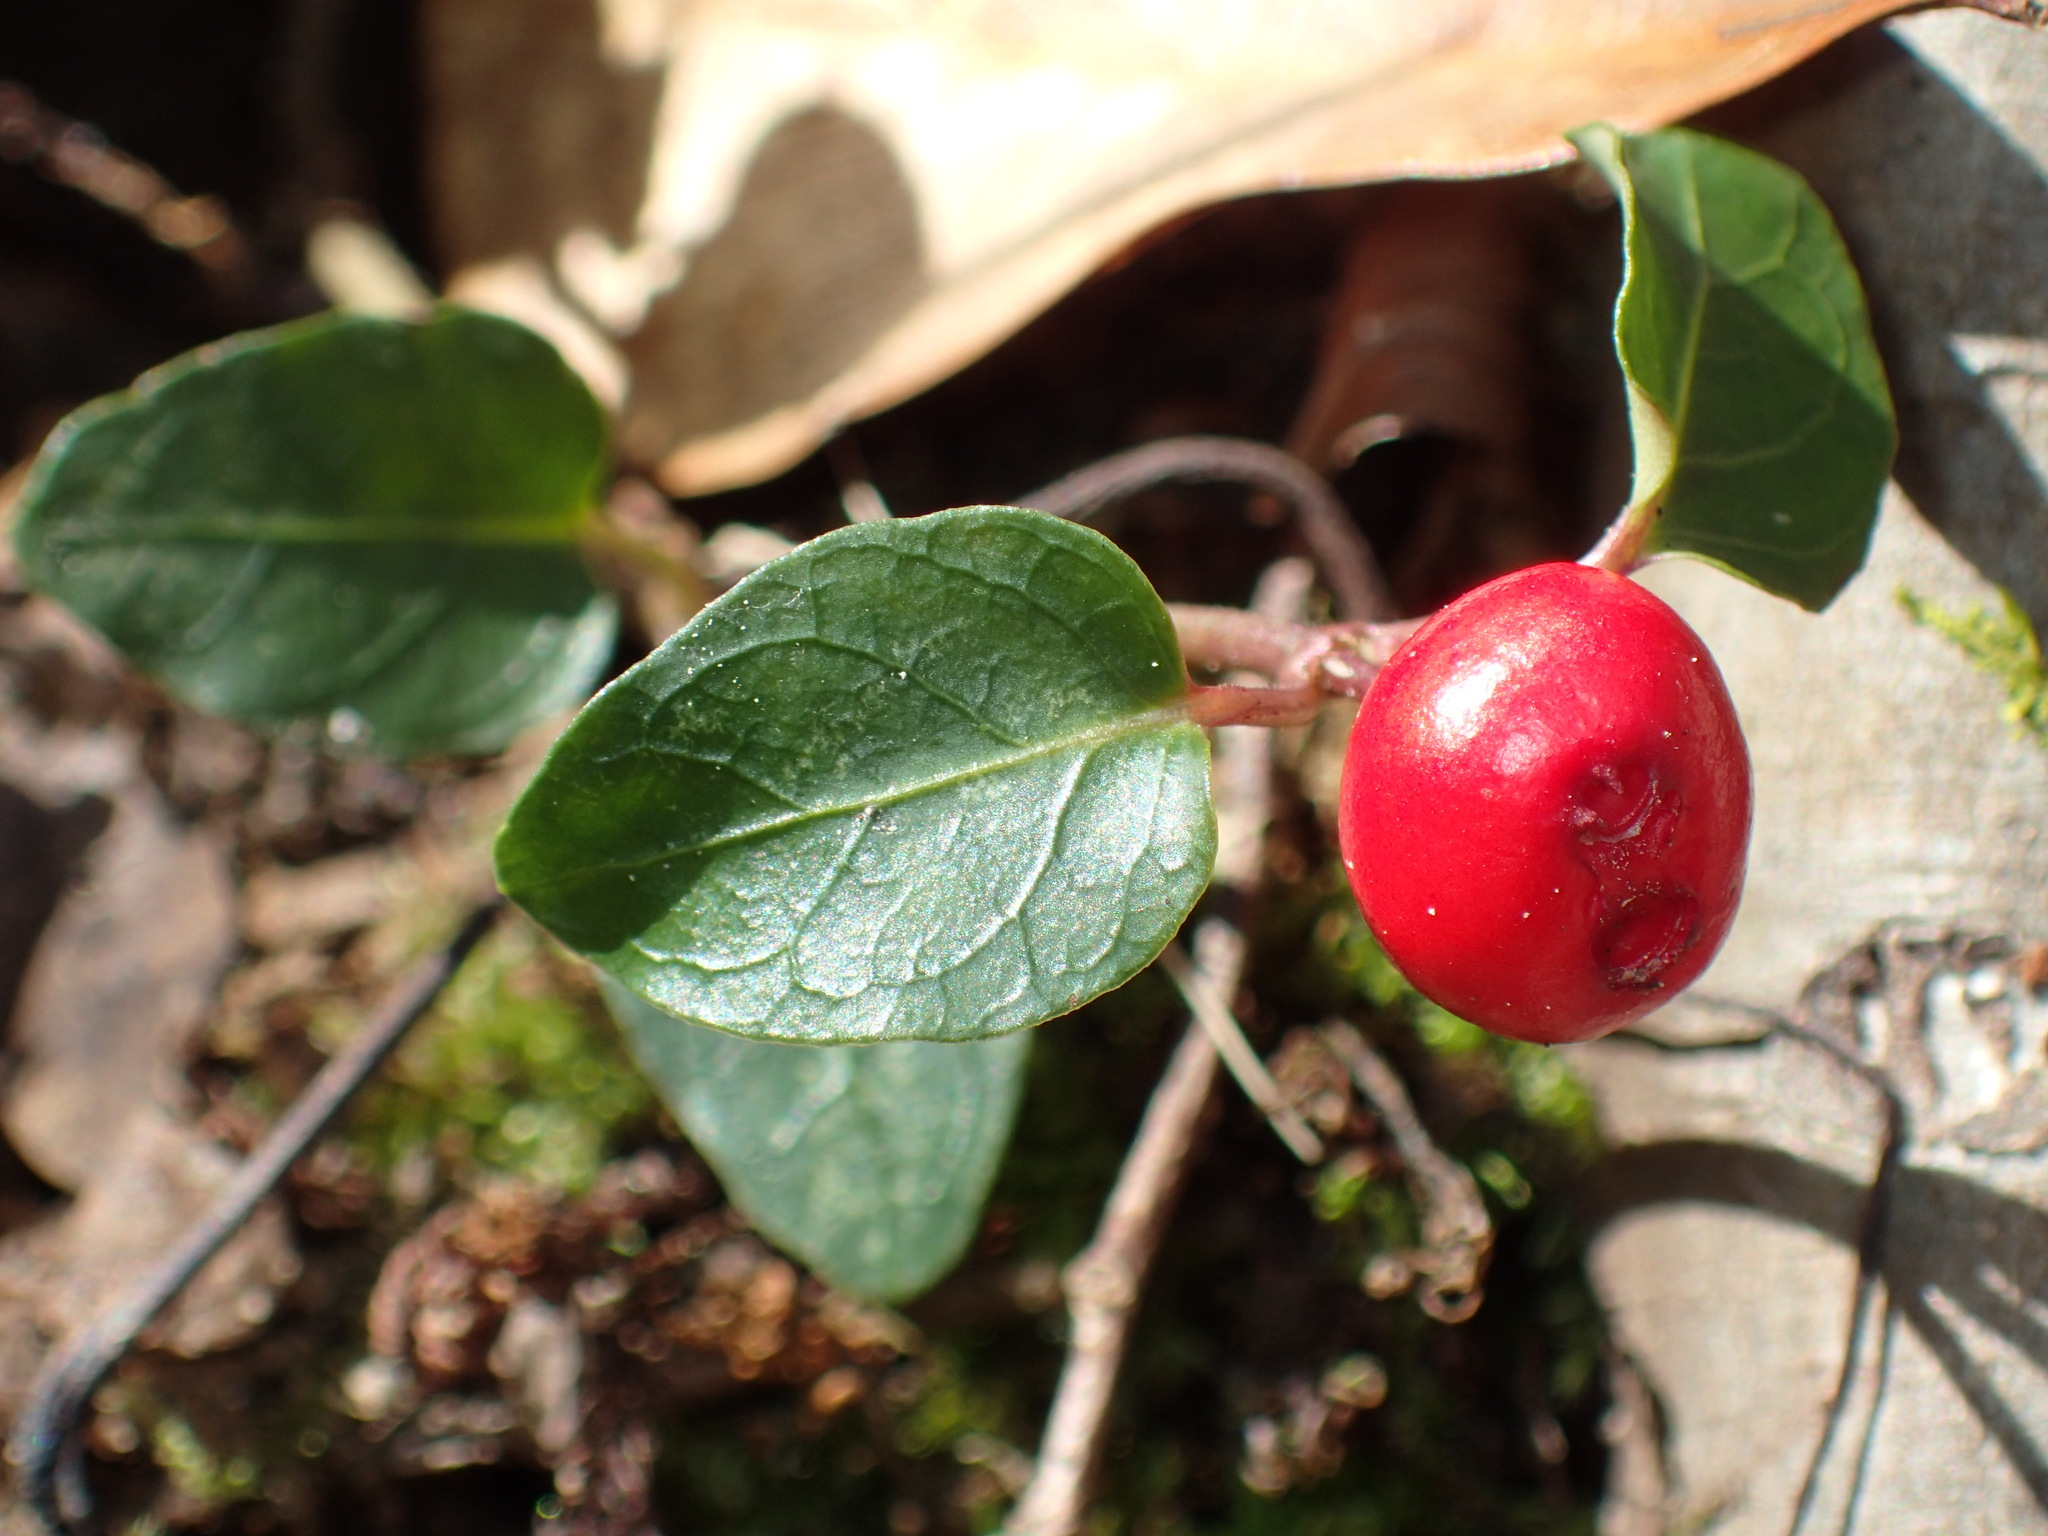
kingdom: Plantae
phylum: Tracheophyta
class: Magnoliopsida
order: Gentianales
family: Rubiaceae
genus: Mitchella
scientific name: Mitchella repens
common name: Partridge-berry
